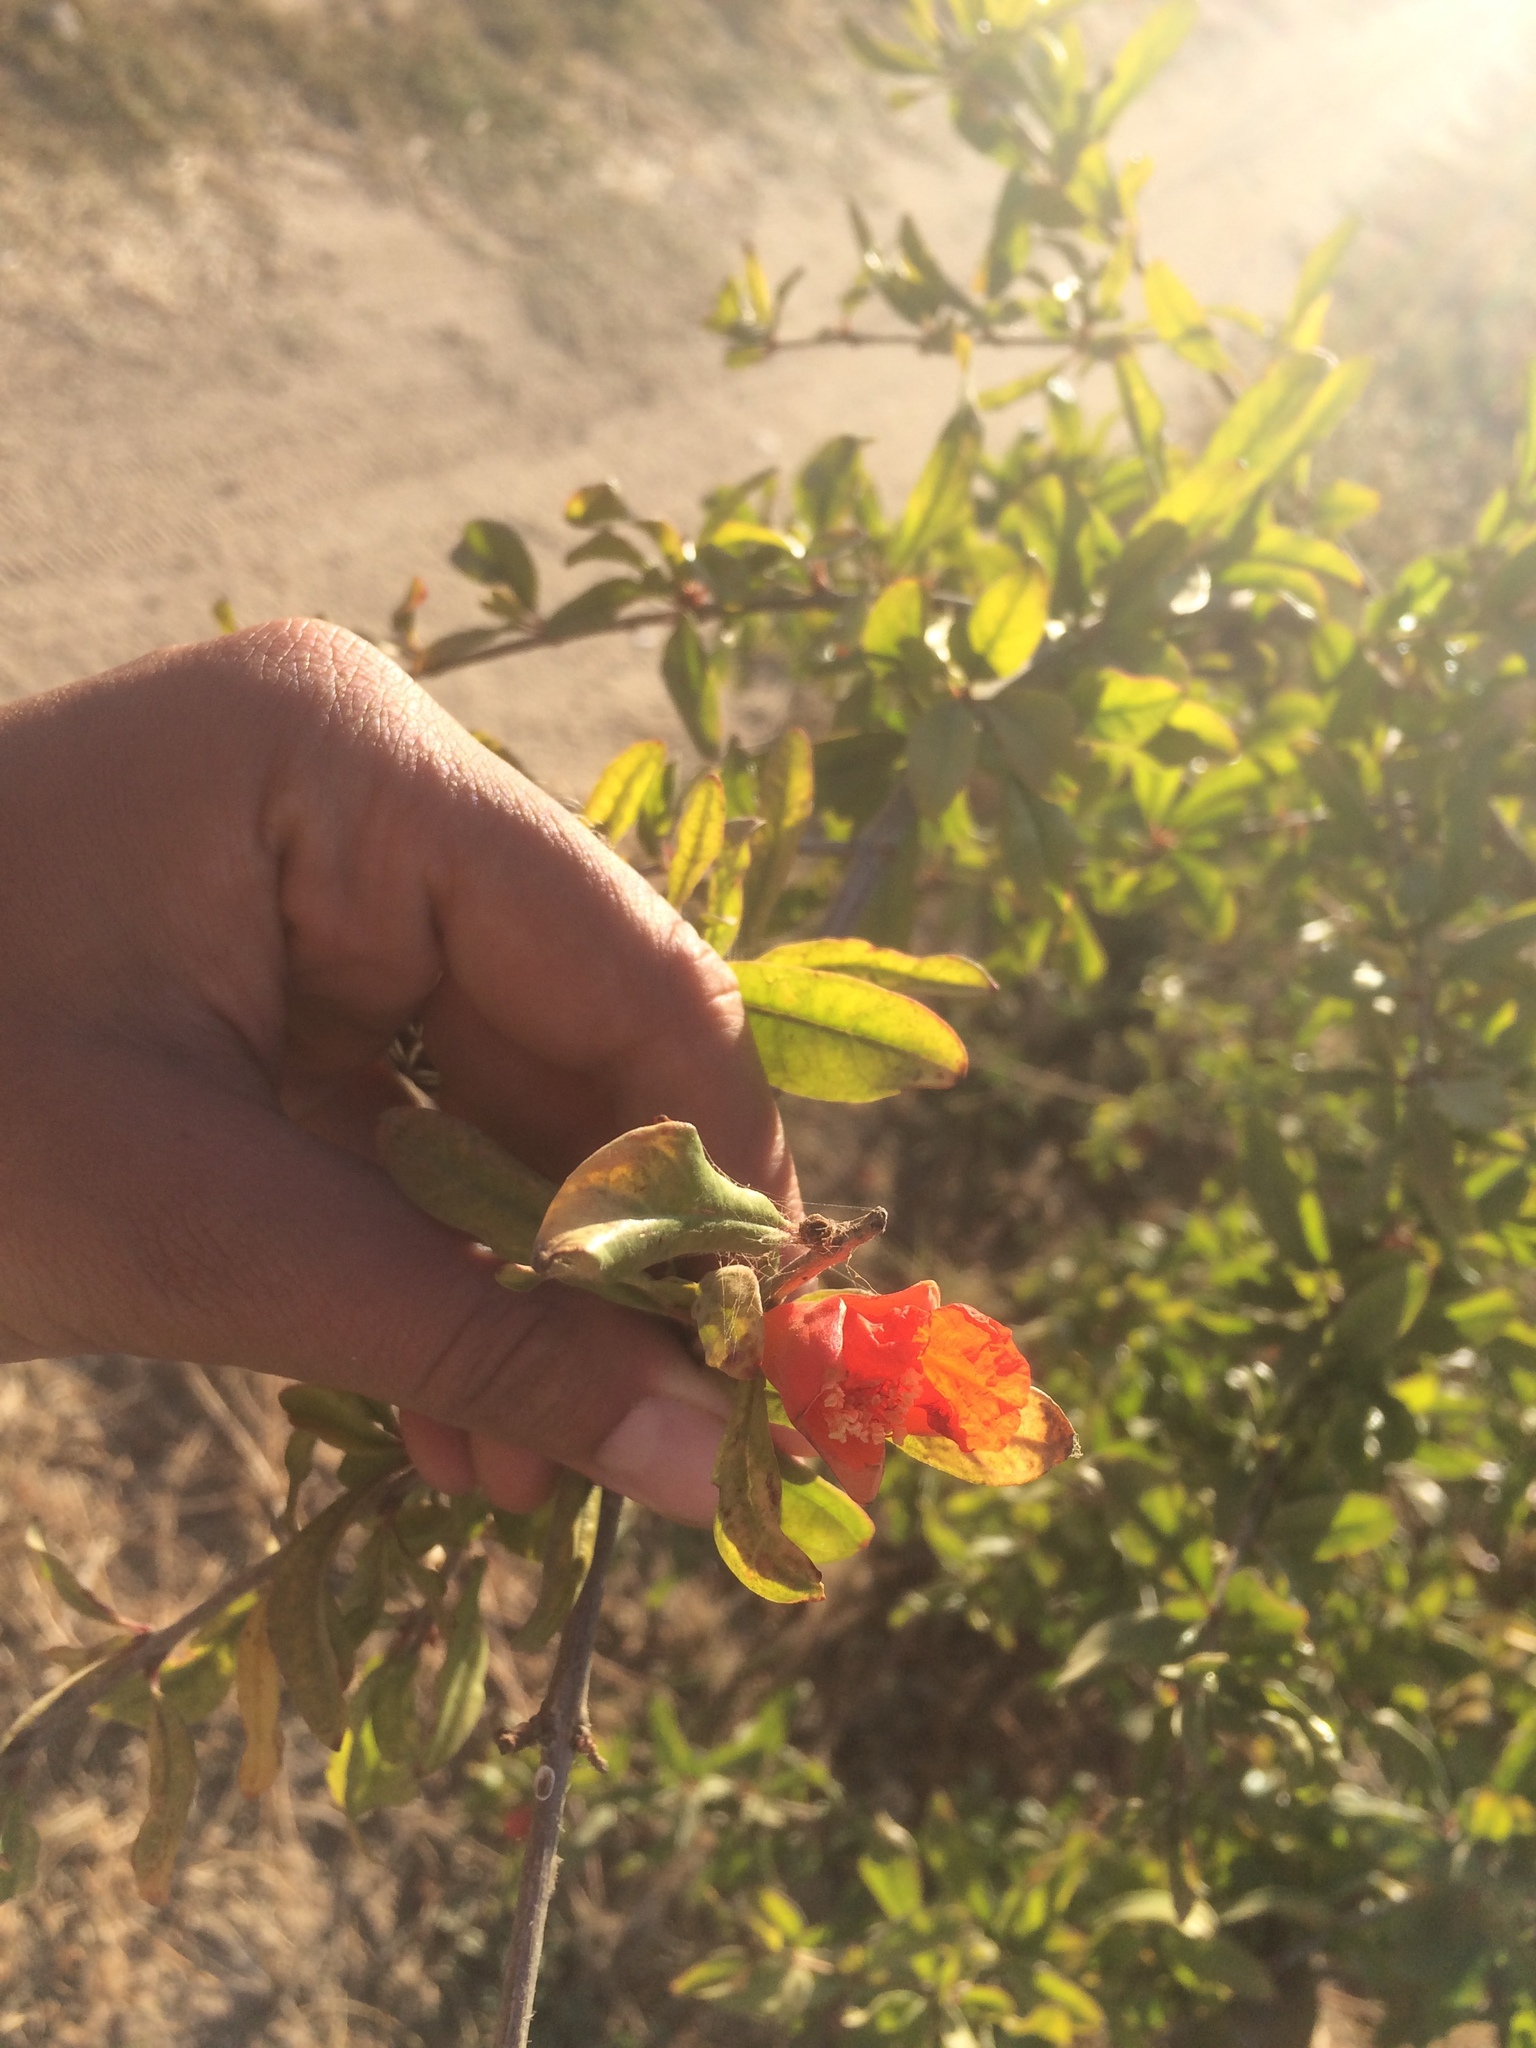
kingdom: Plantae
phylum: Tracheophyta
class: Magnoliopsida
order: Myrtales
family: Lythraceae
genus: Punica
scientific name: Punica granatum
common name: Pomegranate
